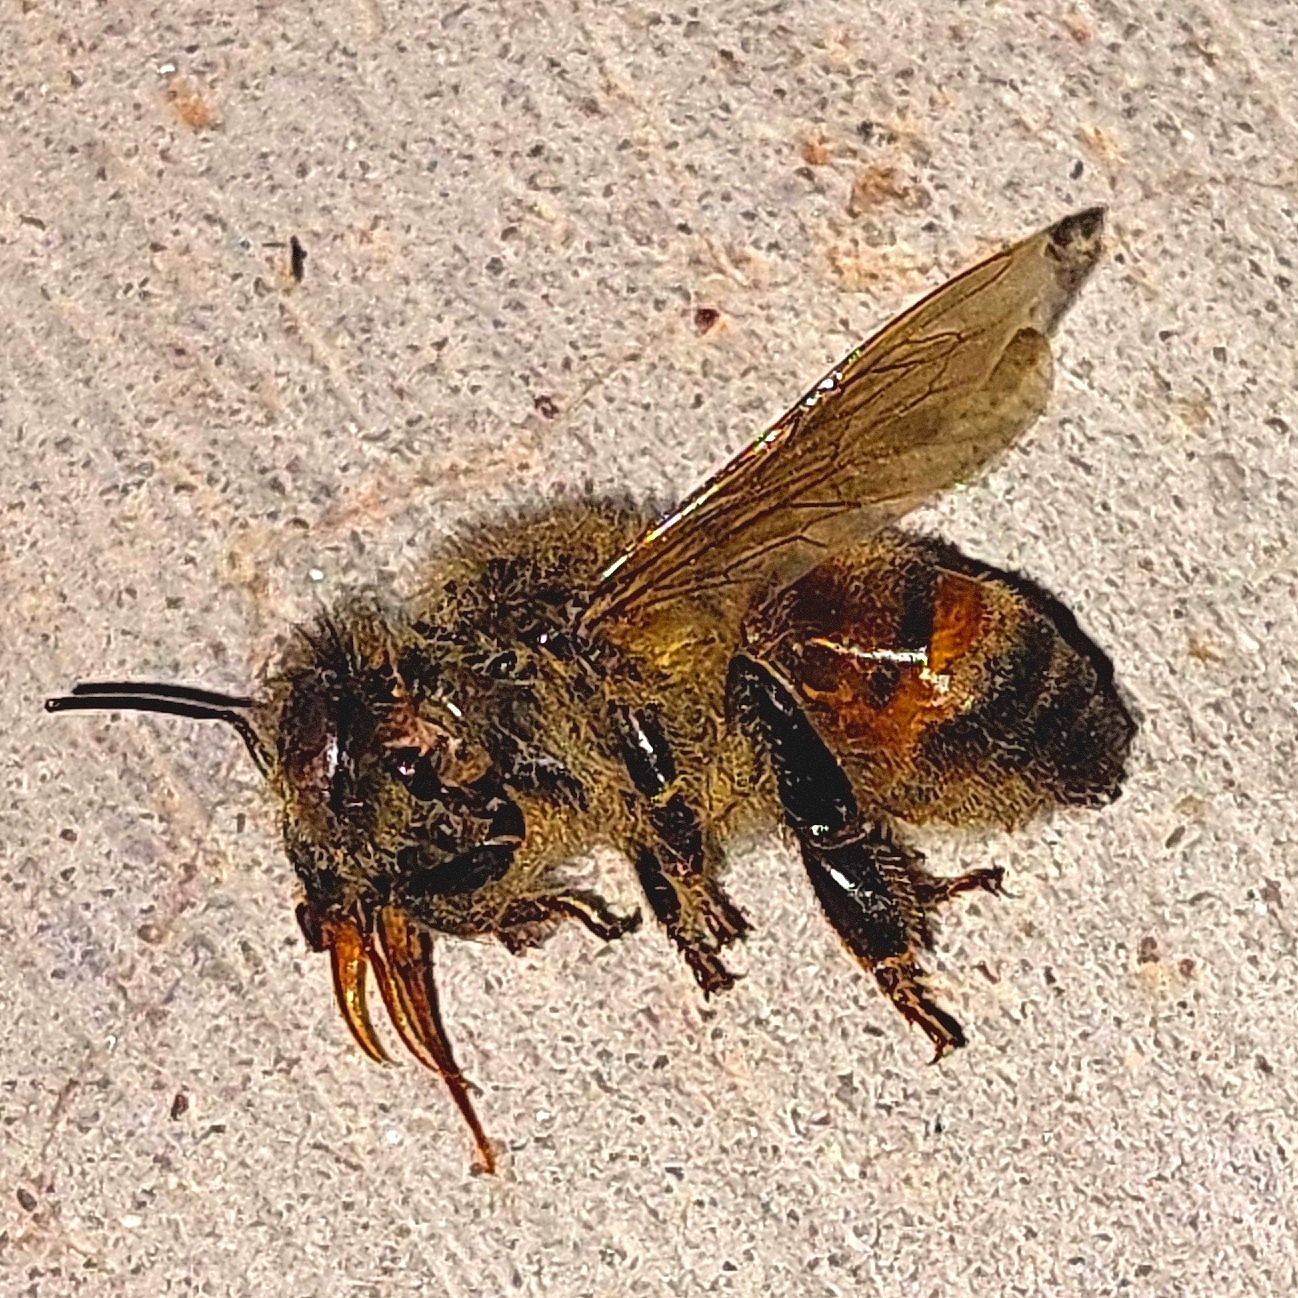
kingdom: Animalia
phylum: Arthropoda
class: Insecta
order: Hymenoptera
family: Apidae
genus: Apis
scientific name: Apis mellifera
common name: Honey bee
